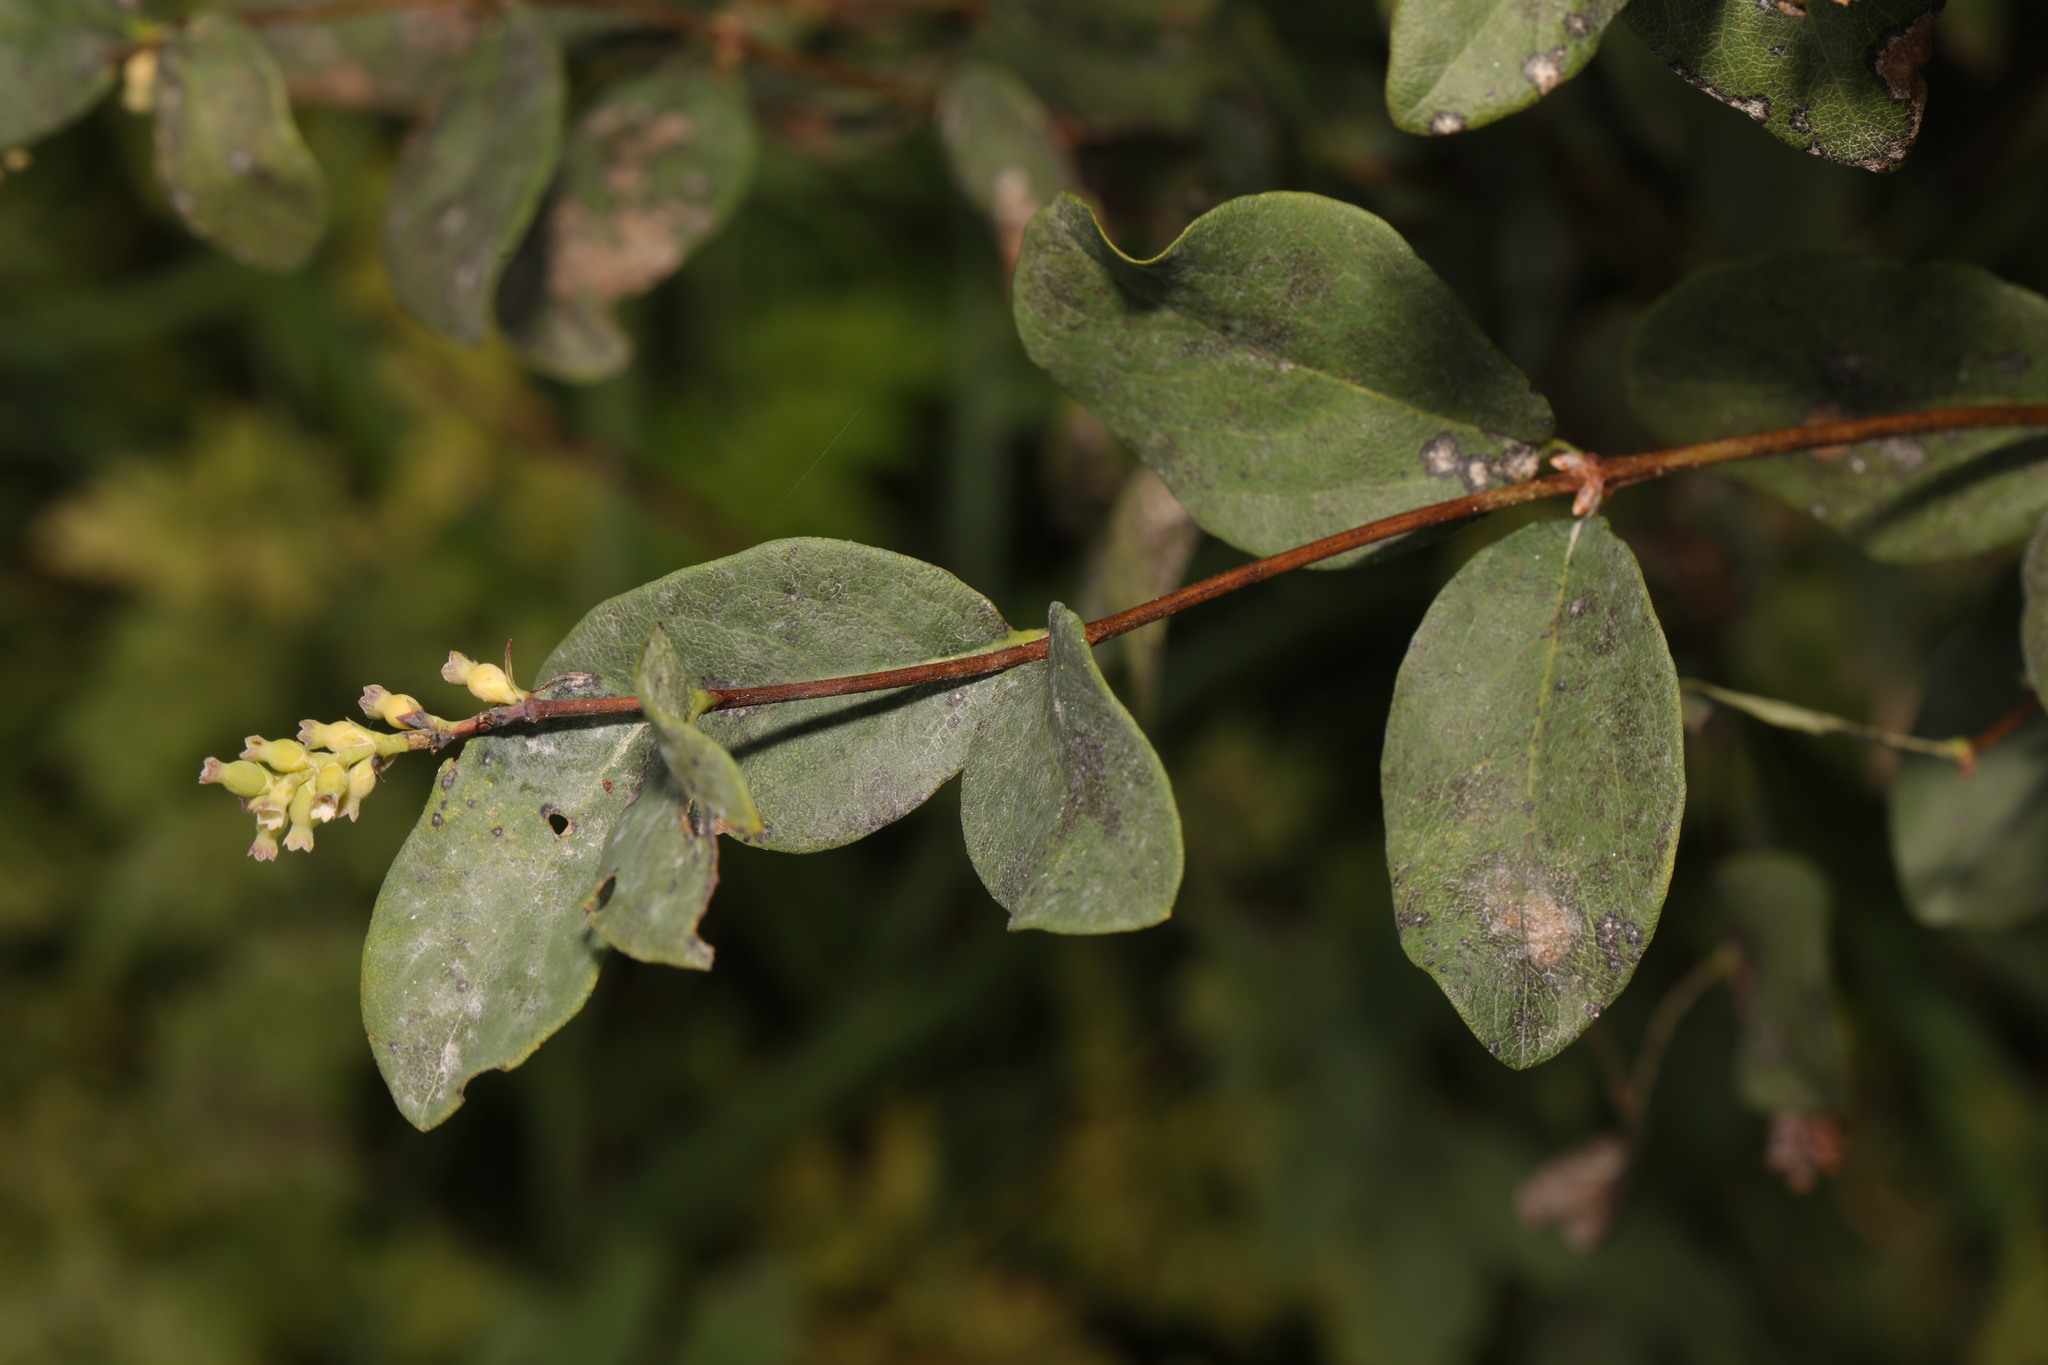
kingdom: Plantae
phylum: Tracheophyta
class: Magnoliopsida
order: Dipsacales
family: Caprifoliaceae
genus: Symphoricarpos
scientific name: Symphoricarpos albus
